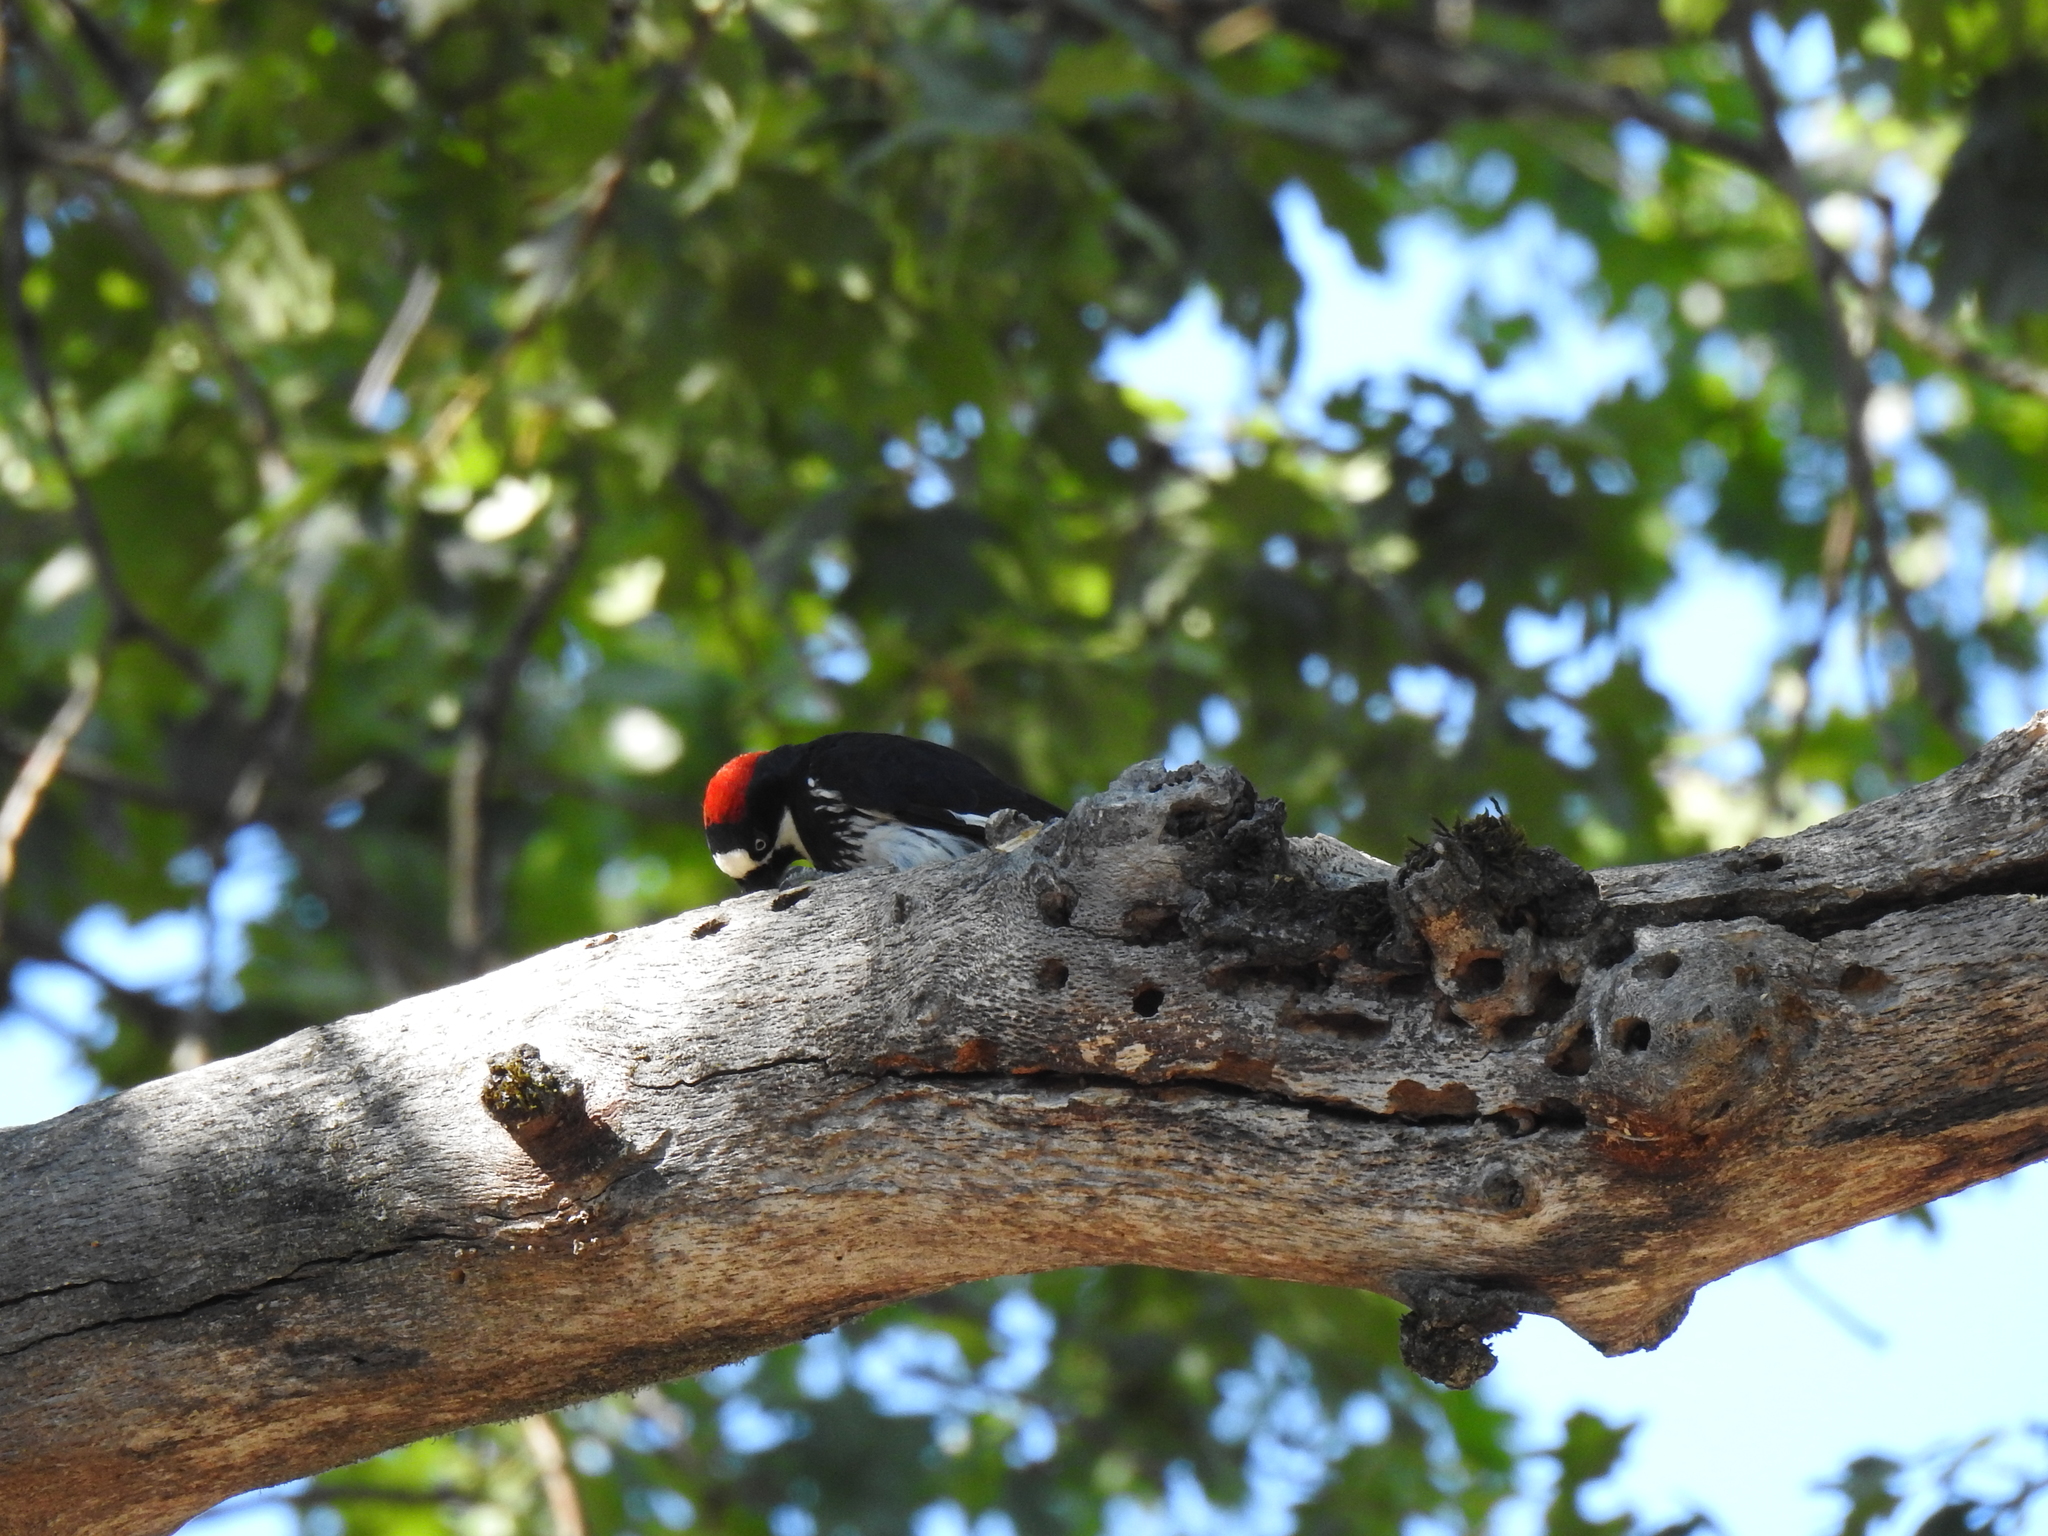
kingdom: Animalia
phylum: Chordata
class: Aves
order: Piciformes
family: Picidae
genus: Melanerpes
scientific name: Melanerpes formicivorus
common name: Acorn woodpecker
